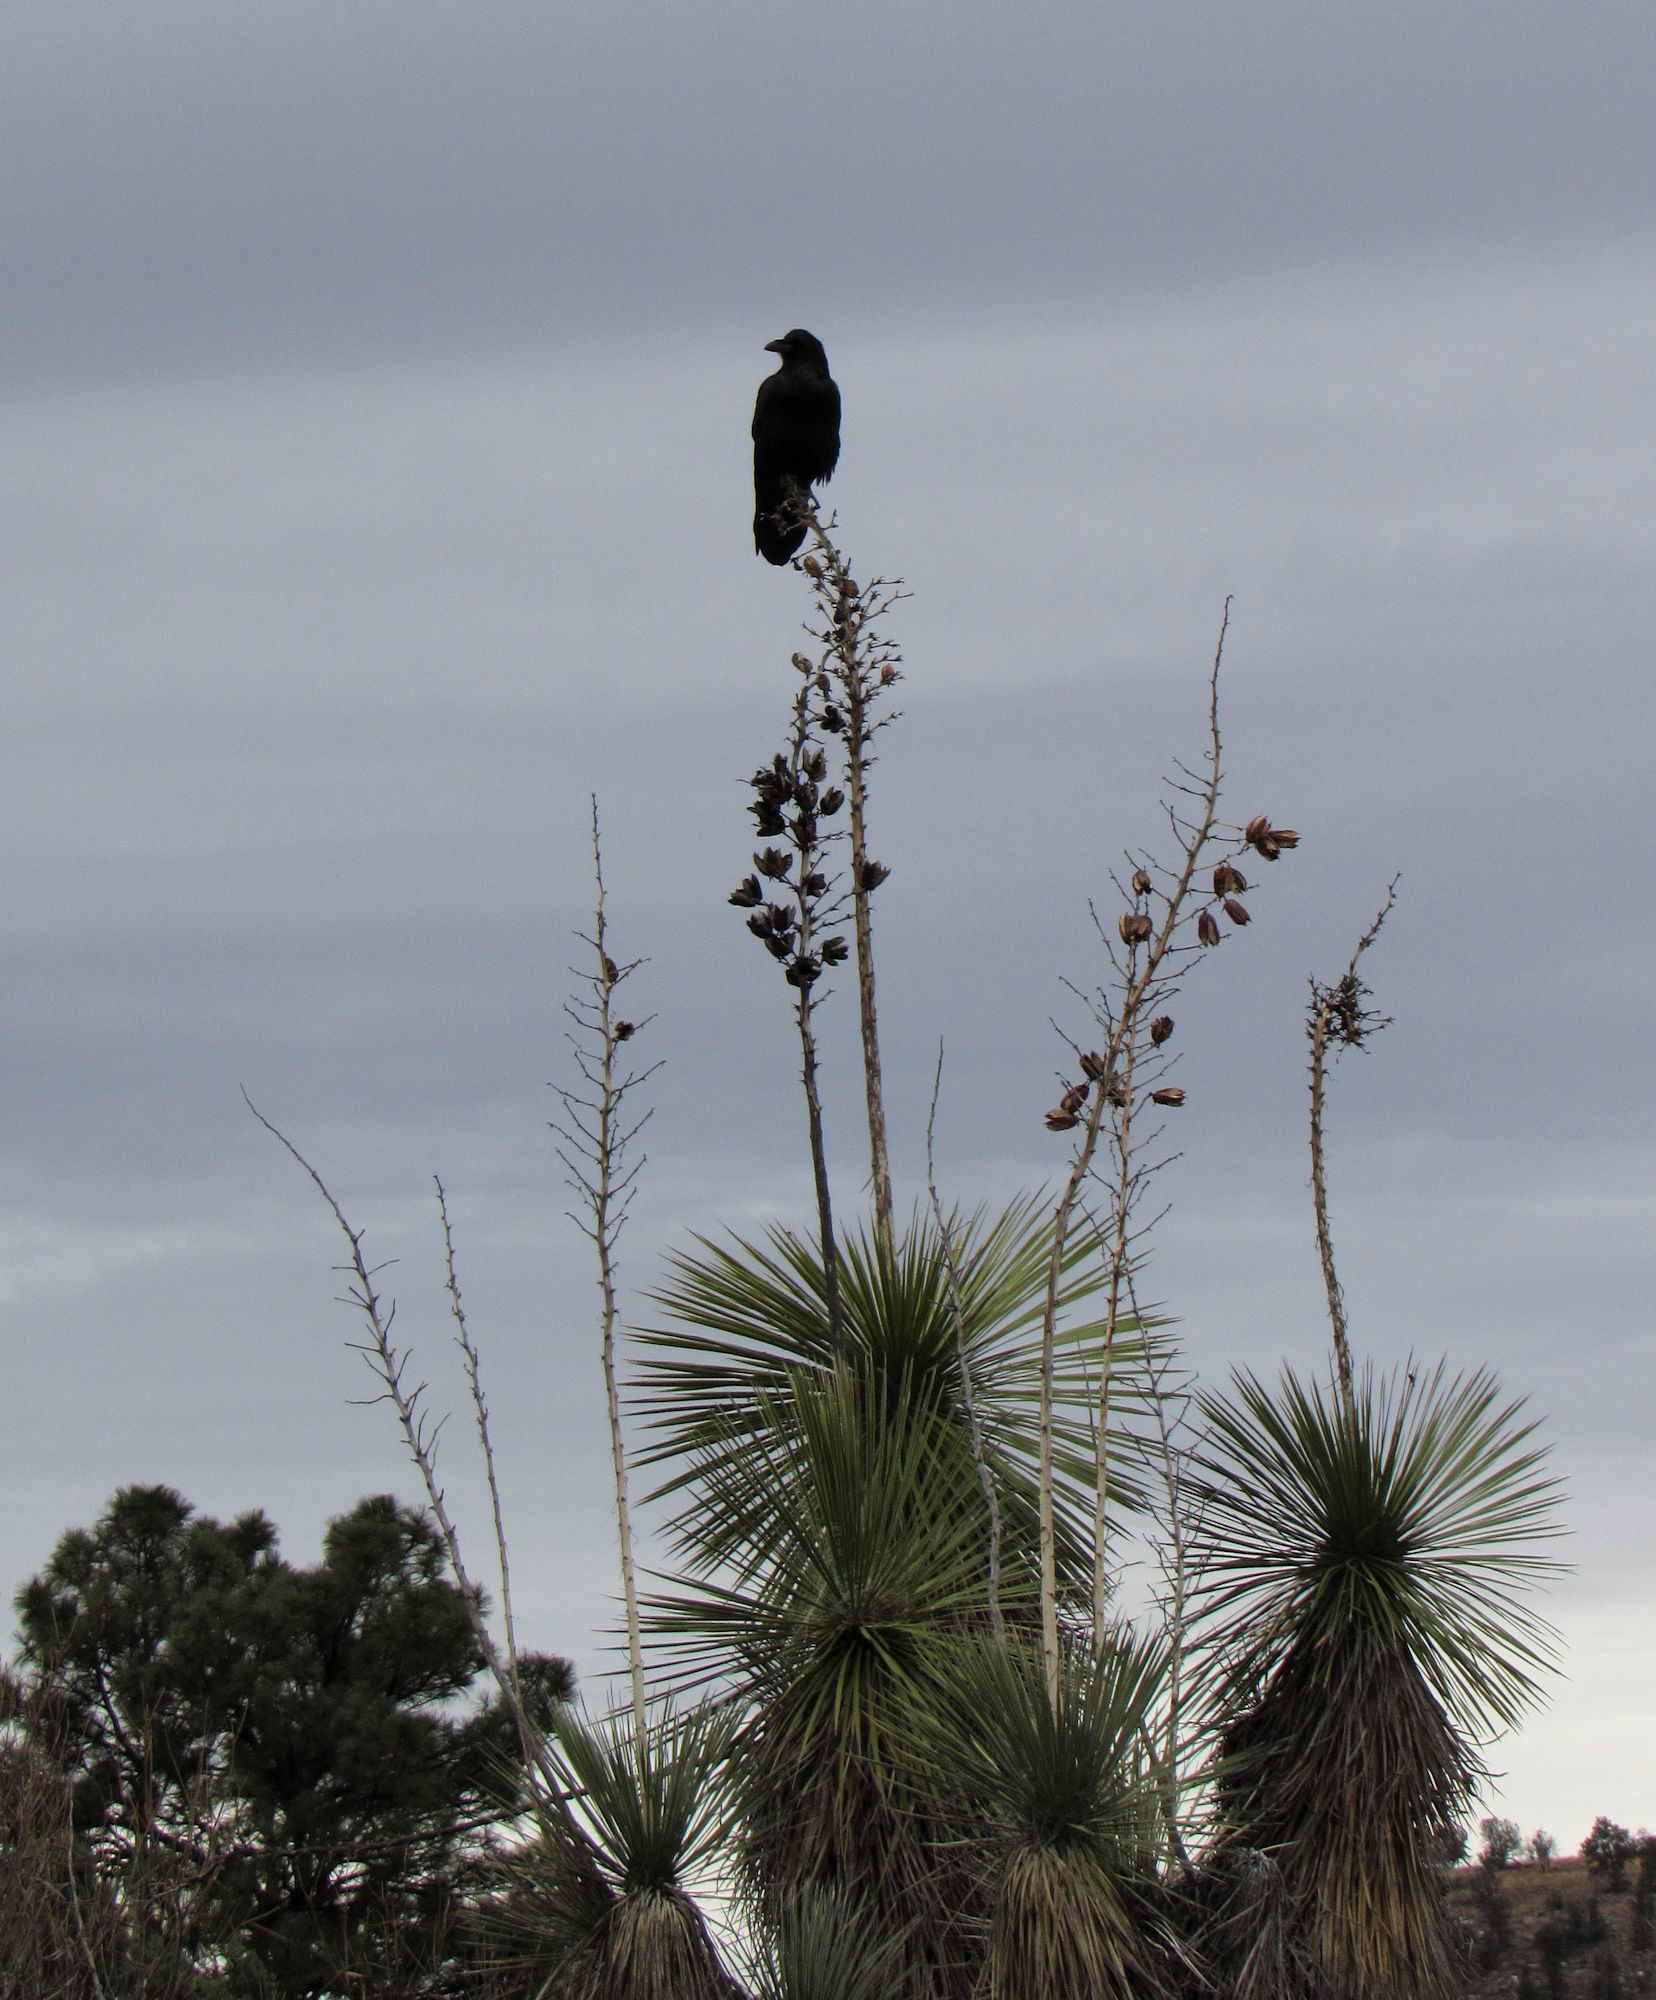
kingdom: Plantae
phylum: Tracheophyta
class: Liliopsida
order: Asparagales
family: Asparagaceae
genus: Yucca
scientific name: Yucca elata
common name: Palmella
